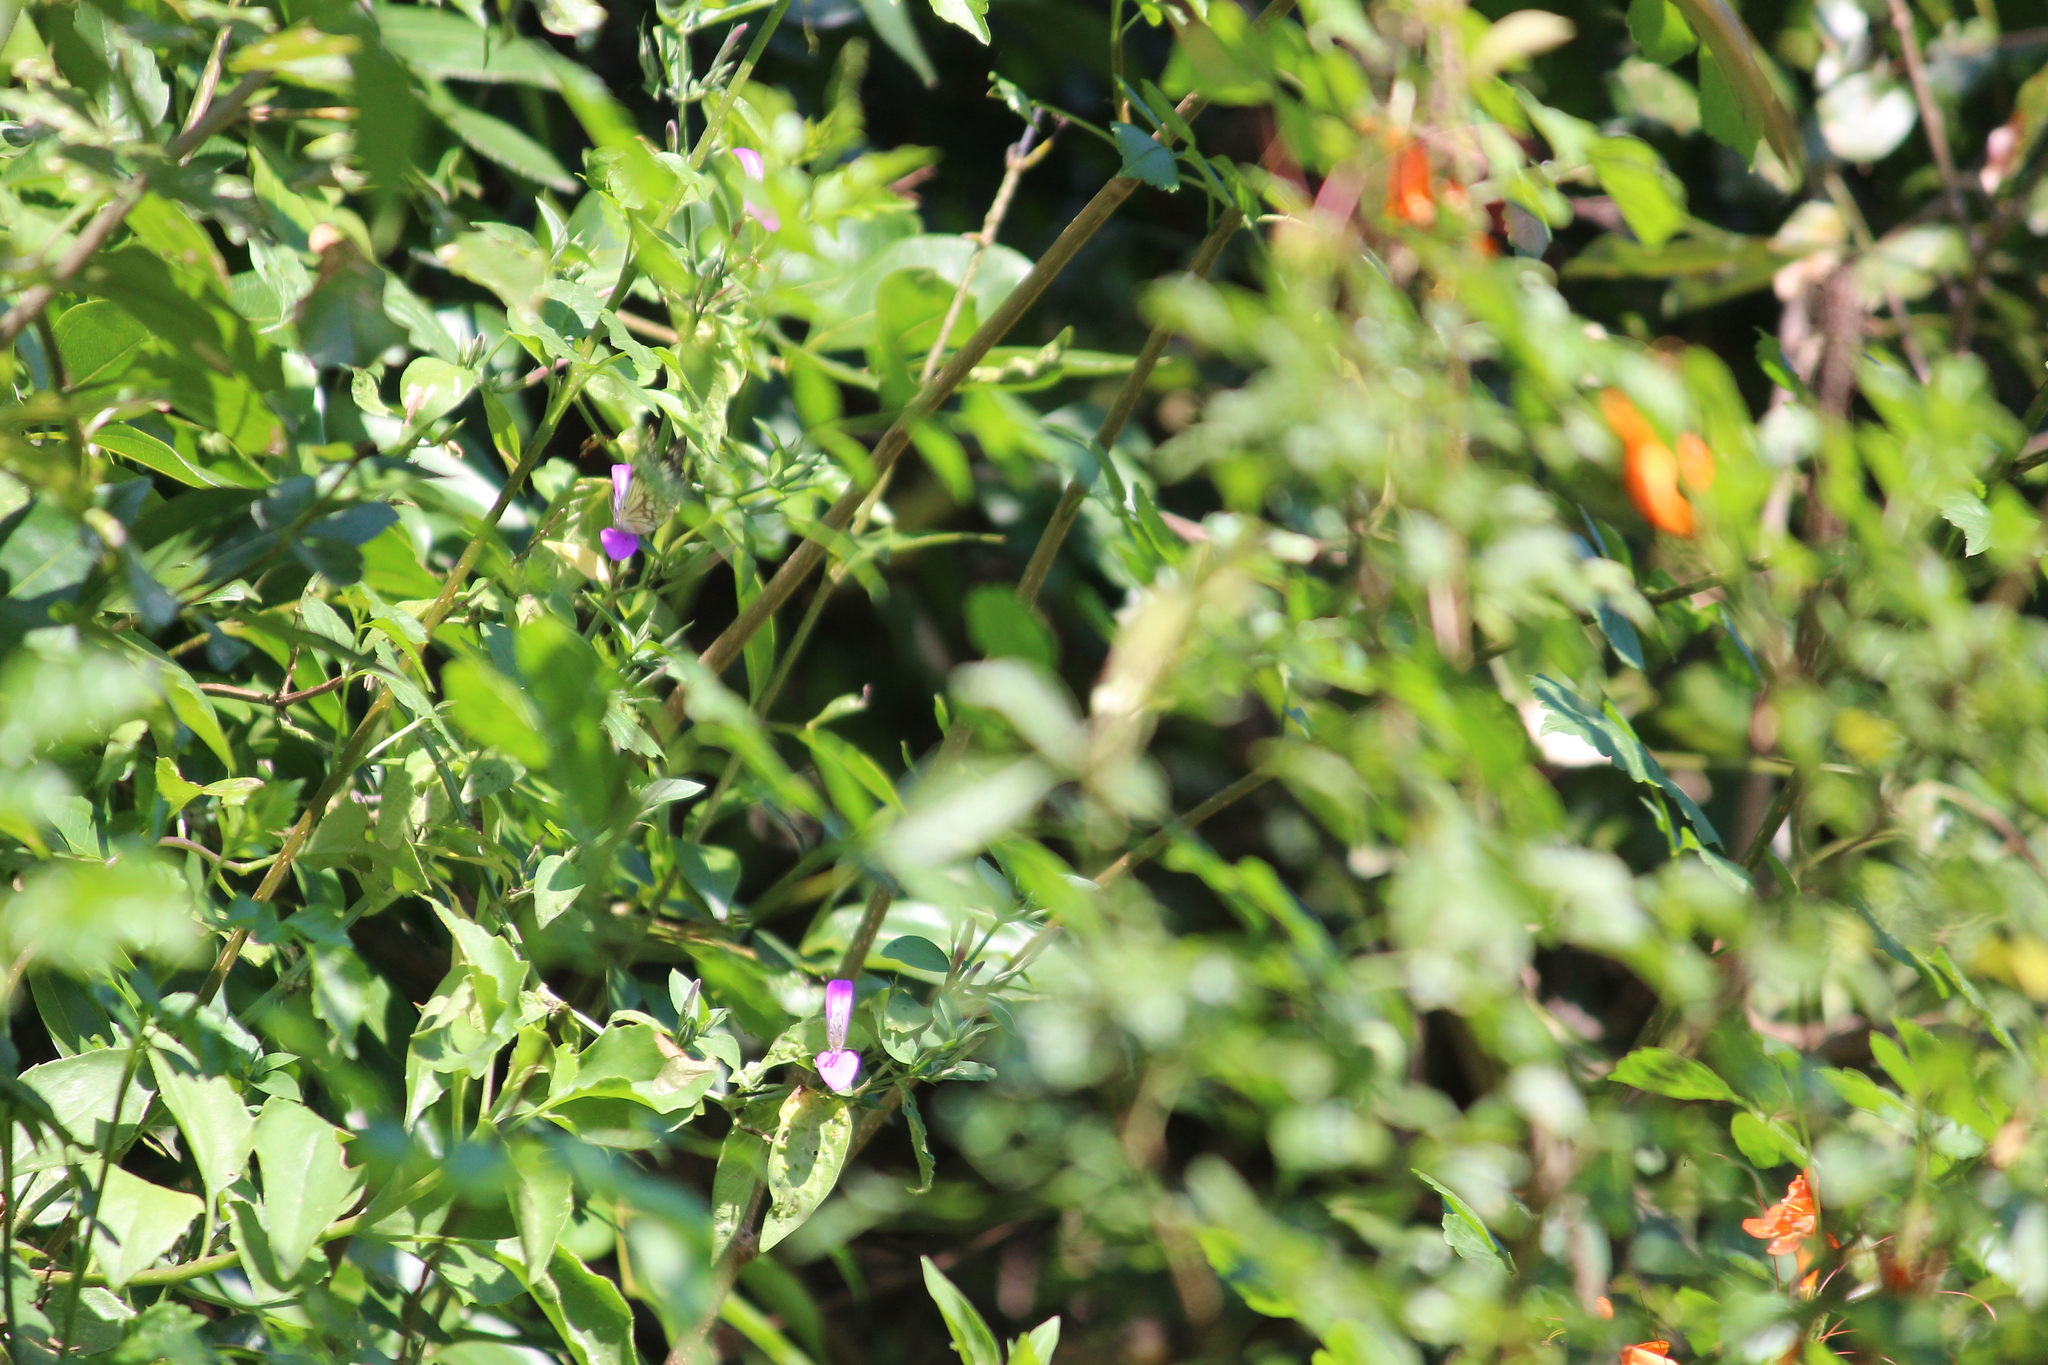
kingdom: Animalia
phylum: Arthropoda
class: Insecta
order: Lepidoptera
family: Pieridae
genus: Belenois
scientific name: Belenois gidica
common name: Pointed caper white
